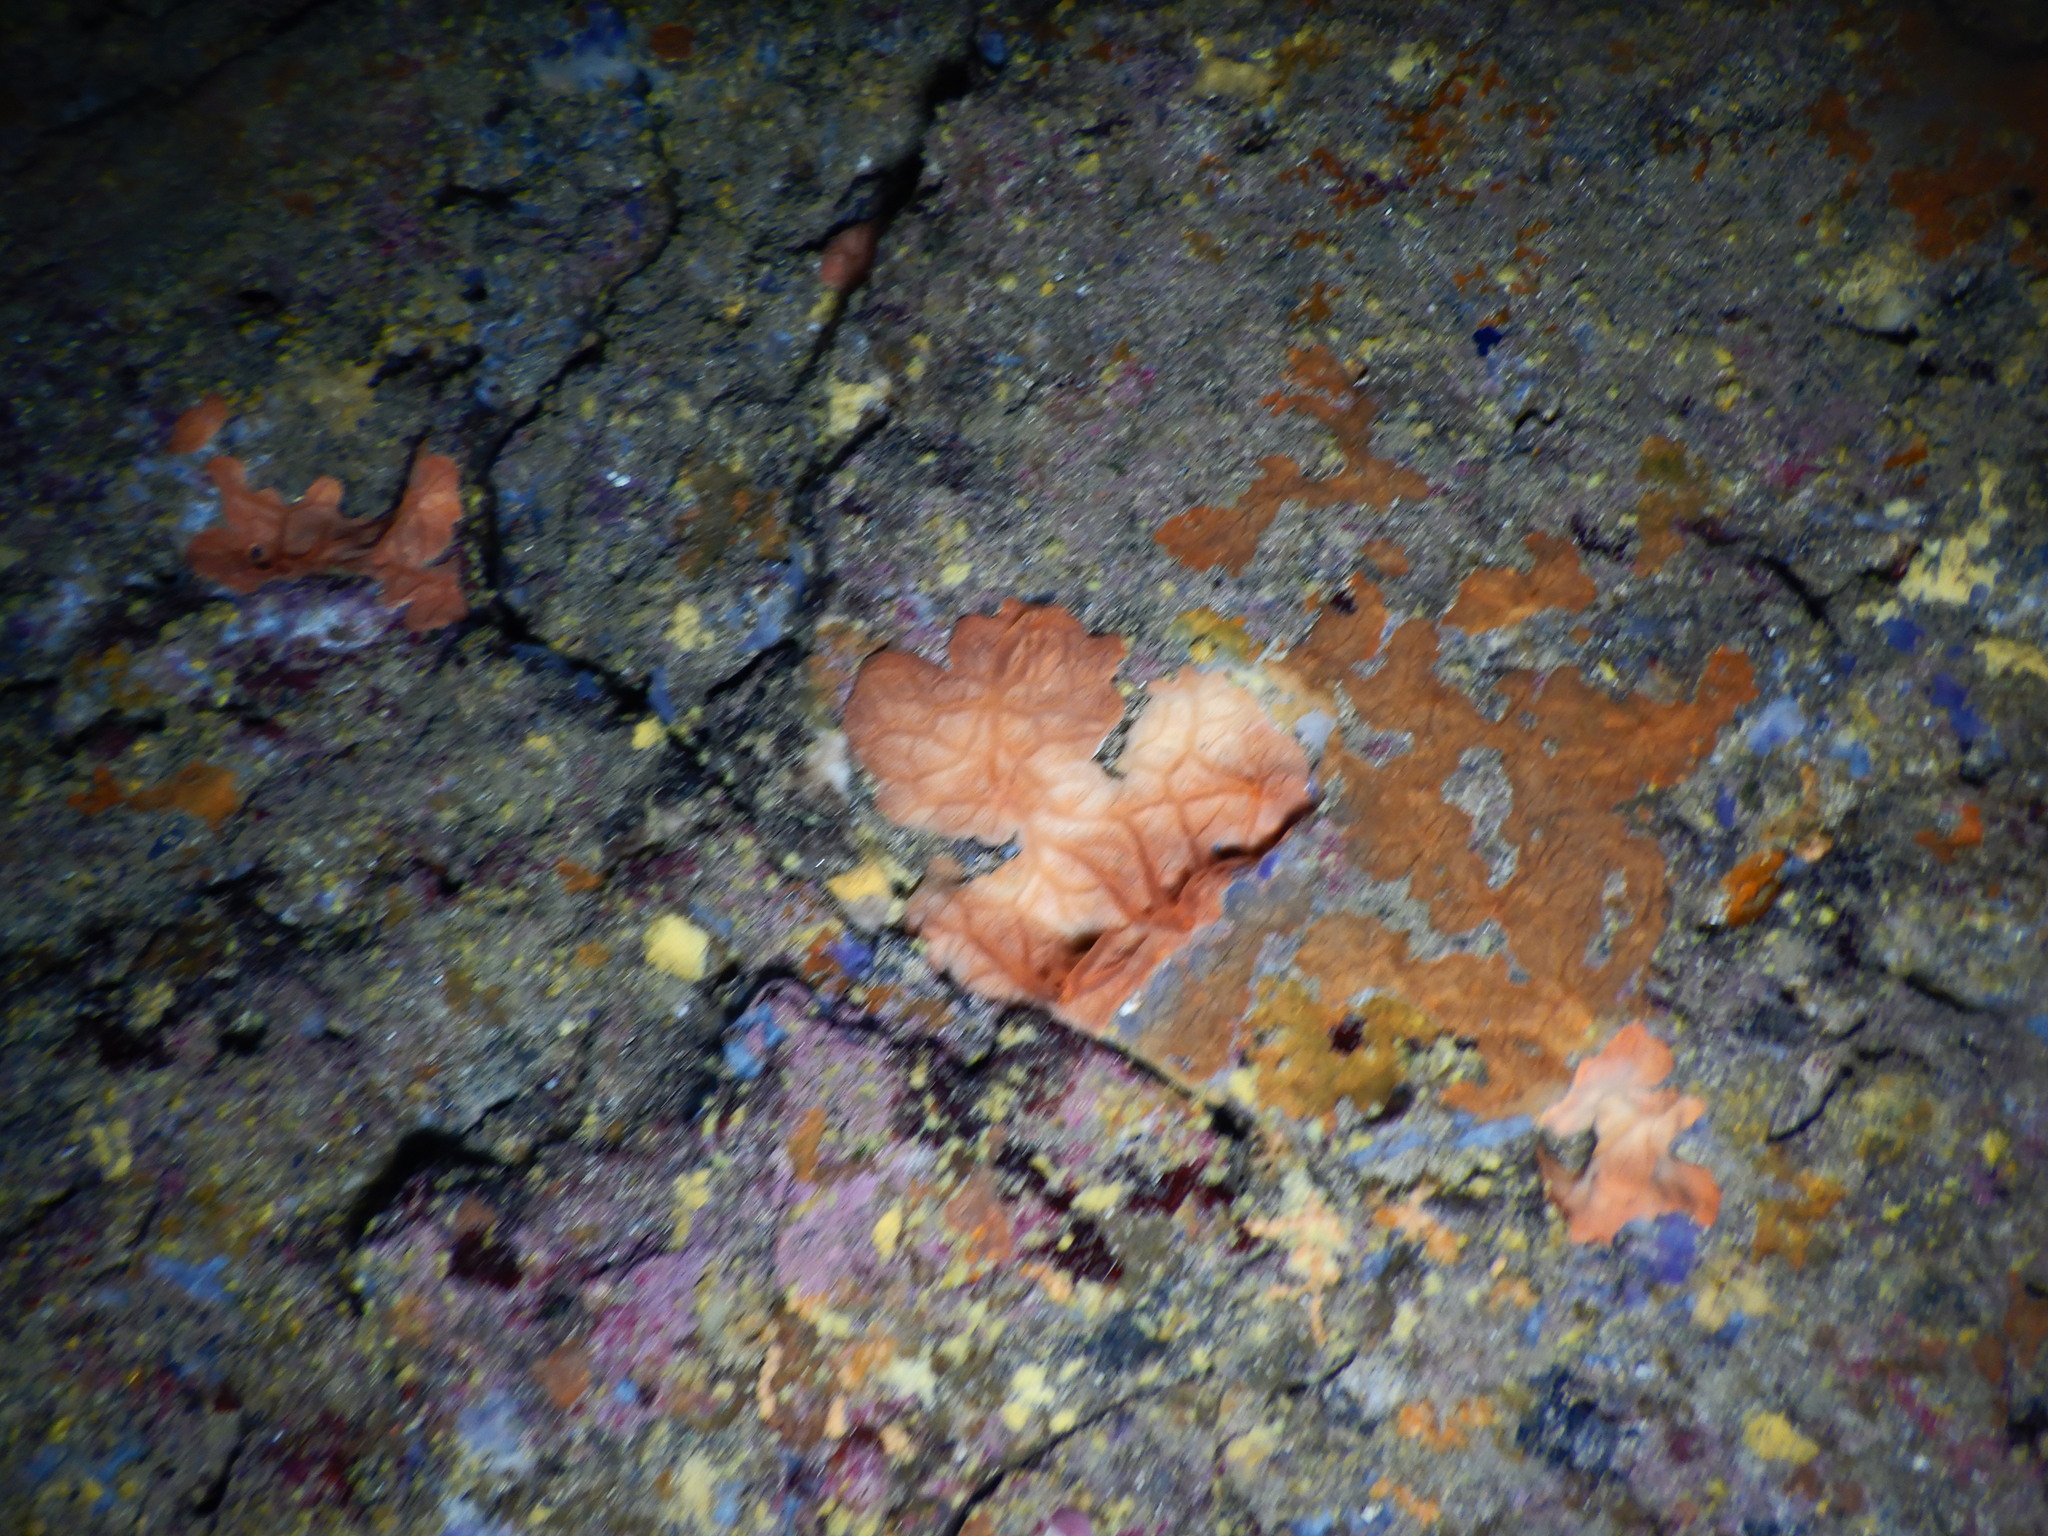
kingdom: Animalia
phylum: Porifera
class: Demospongiae
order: Clionaida
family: Spirastrellidae
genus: Spirastrella
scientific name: Spirastrella cunctatrix
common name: Encrusting orange sponge
